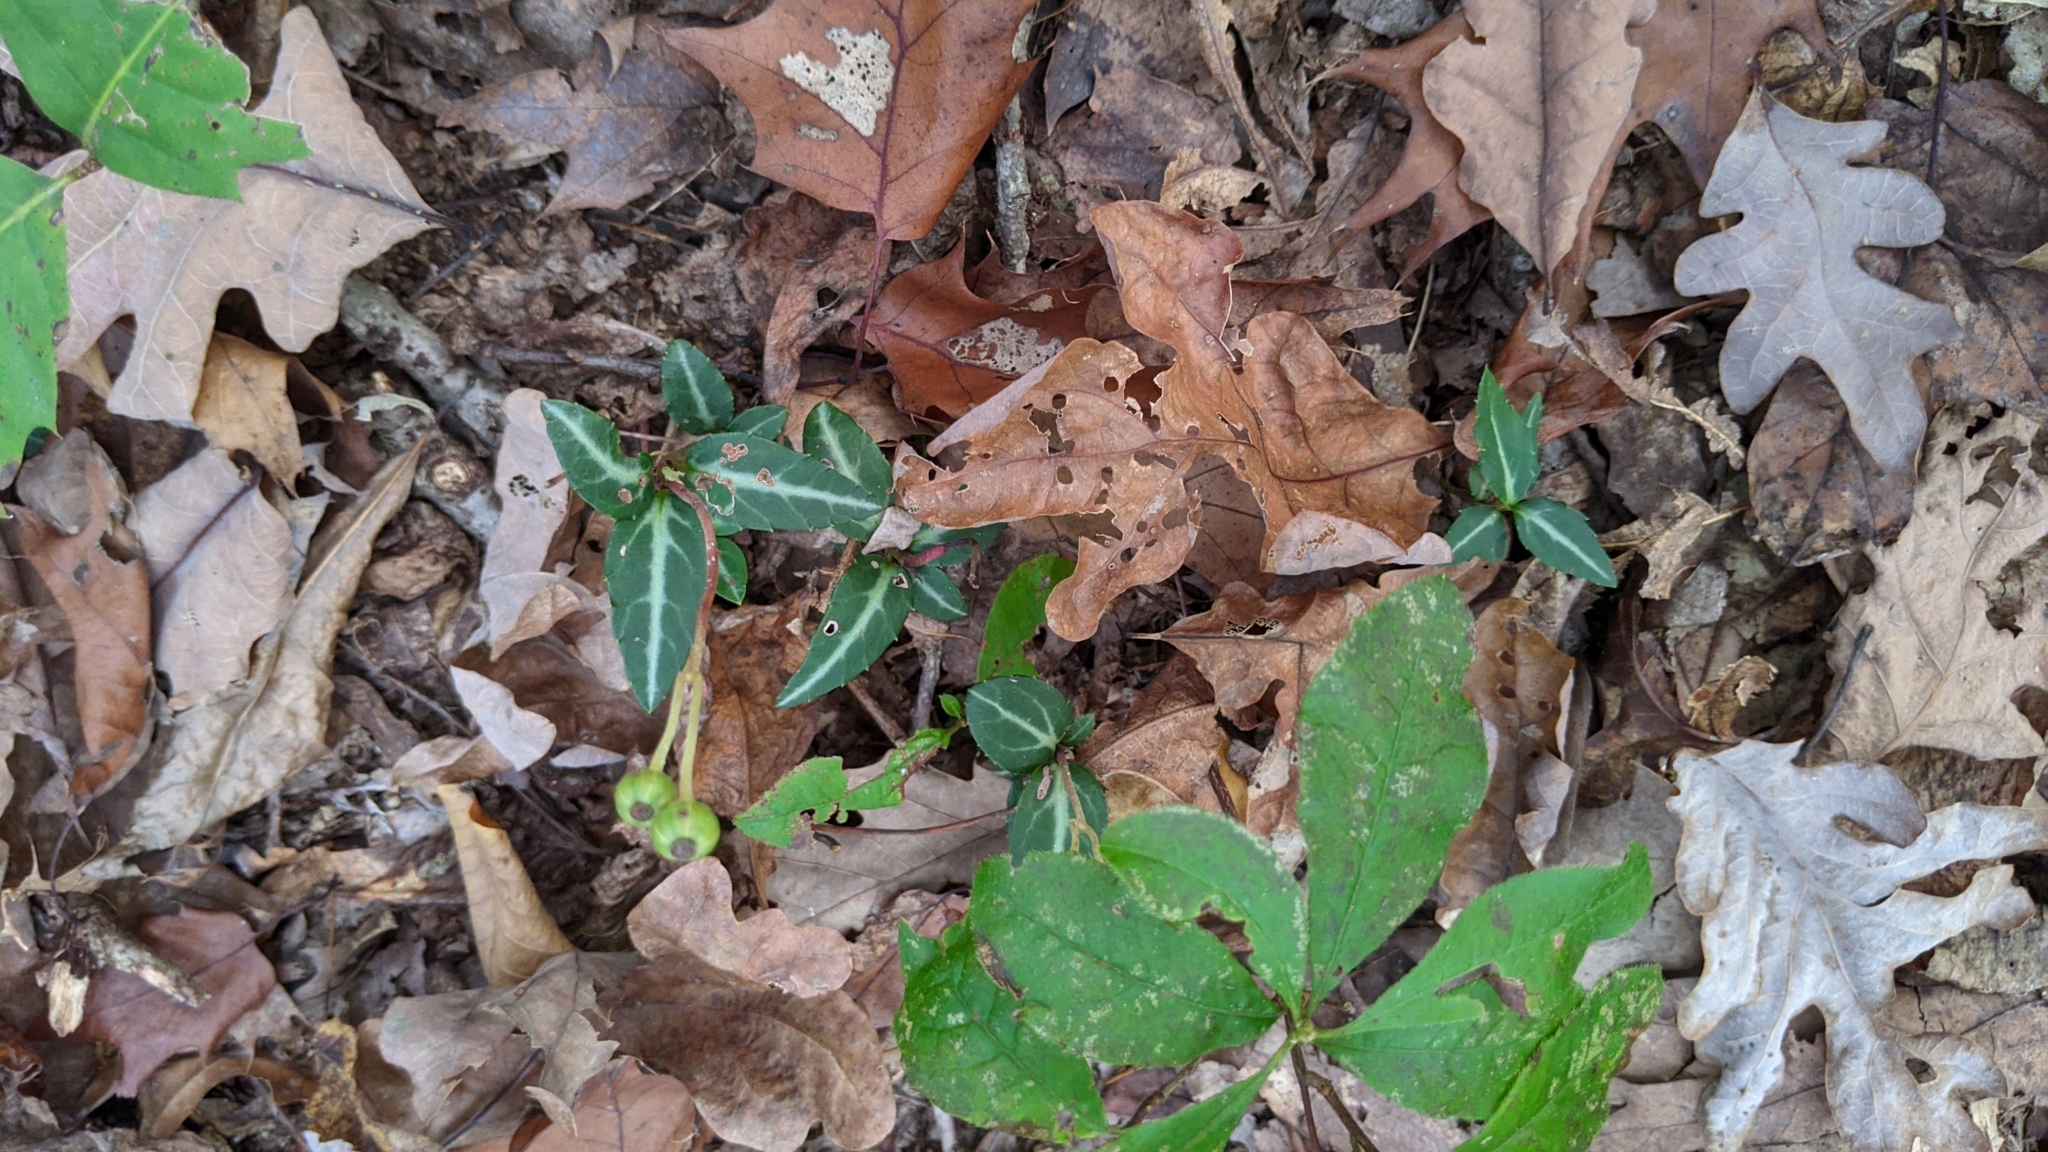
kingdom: Plantae
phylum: Tracheophyta
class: Magnoliopsida
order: Ericales
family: Ericaceae
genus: Chimaphila
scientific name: Chimaphila maculata
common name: Spotted pipsissewa
